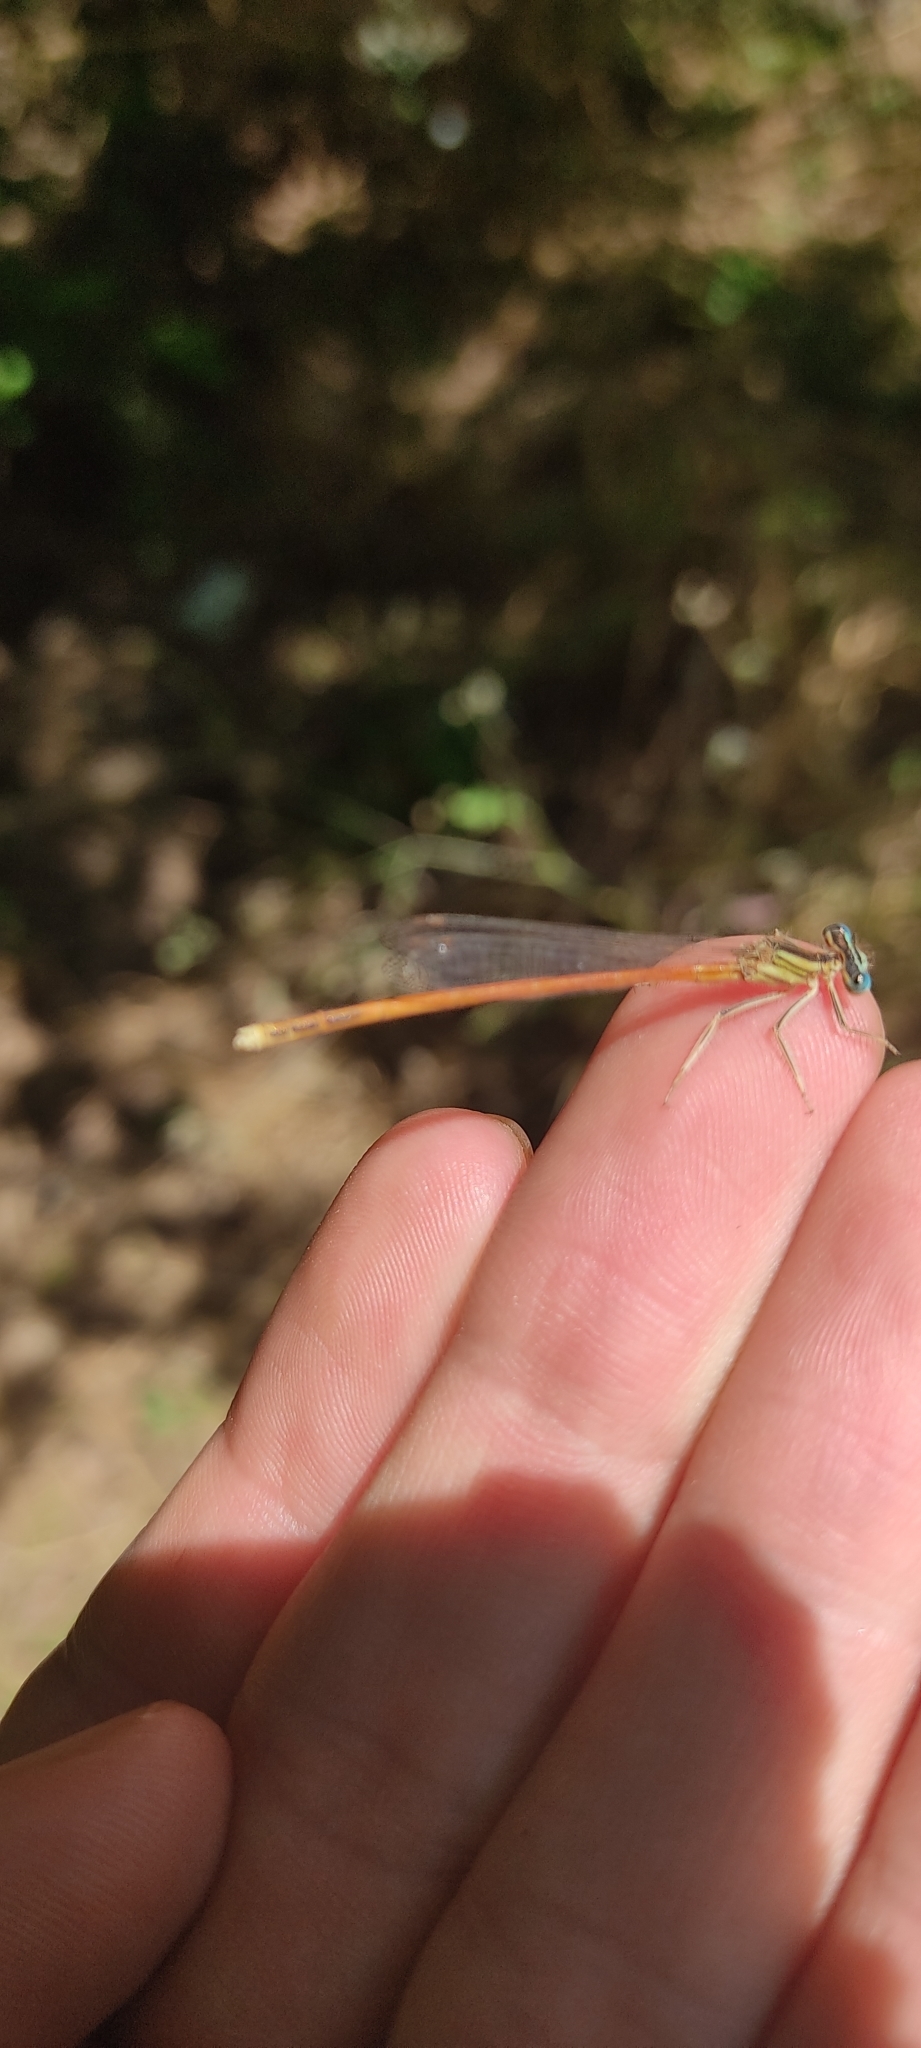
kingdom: Animalia
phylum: Arthropoda
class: Insecta
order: Odonata
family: Platycnemididae
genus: Platycnemis
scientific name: Platycnemis acutipennis
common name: Orange featherleg
